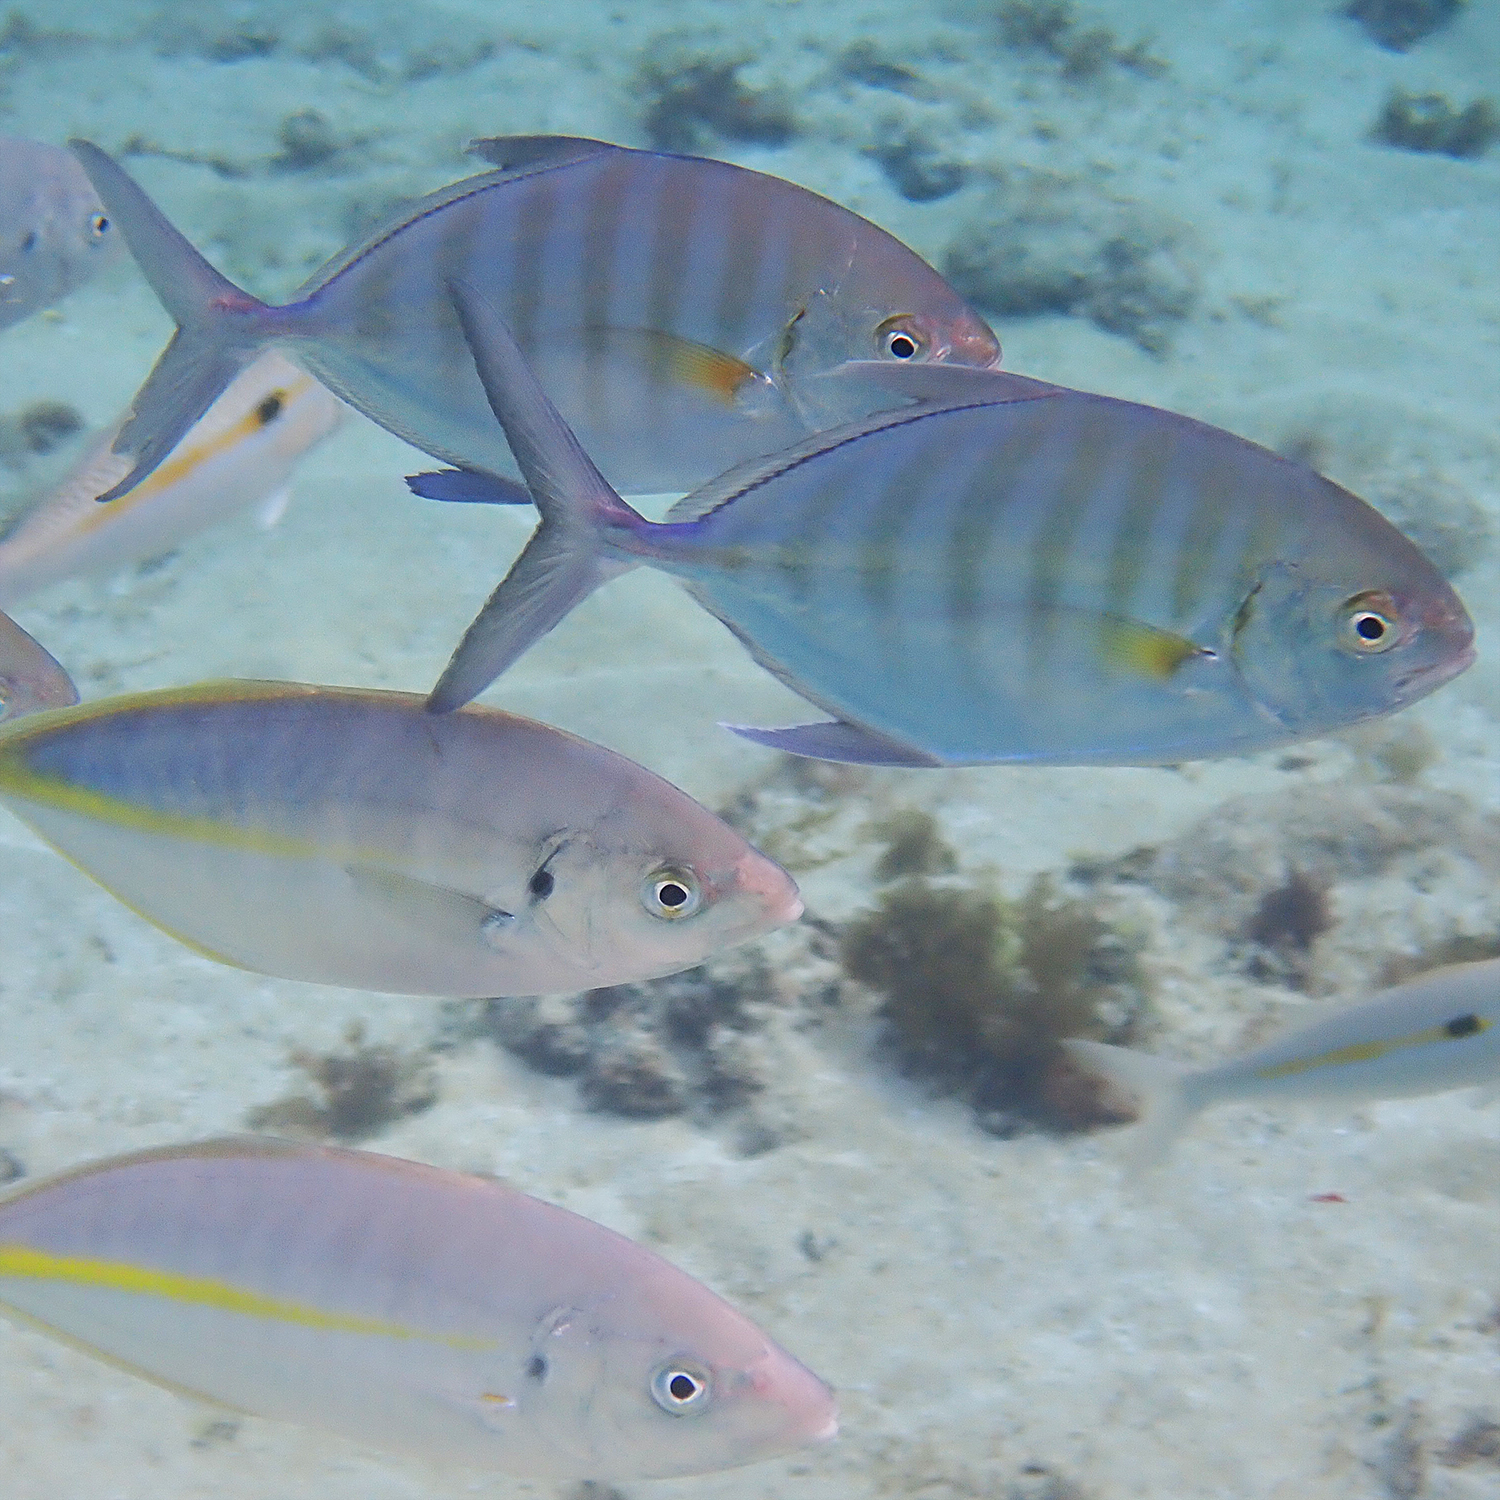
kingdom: Animalia
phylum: Chordata
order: Perciformes
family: Carangidae
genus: Carangoides
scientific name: Carangoides Ferdauia ferdau
